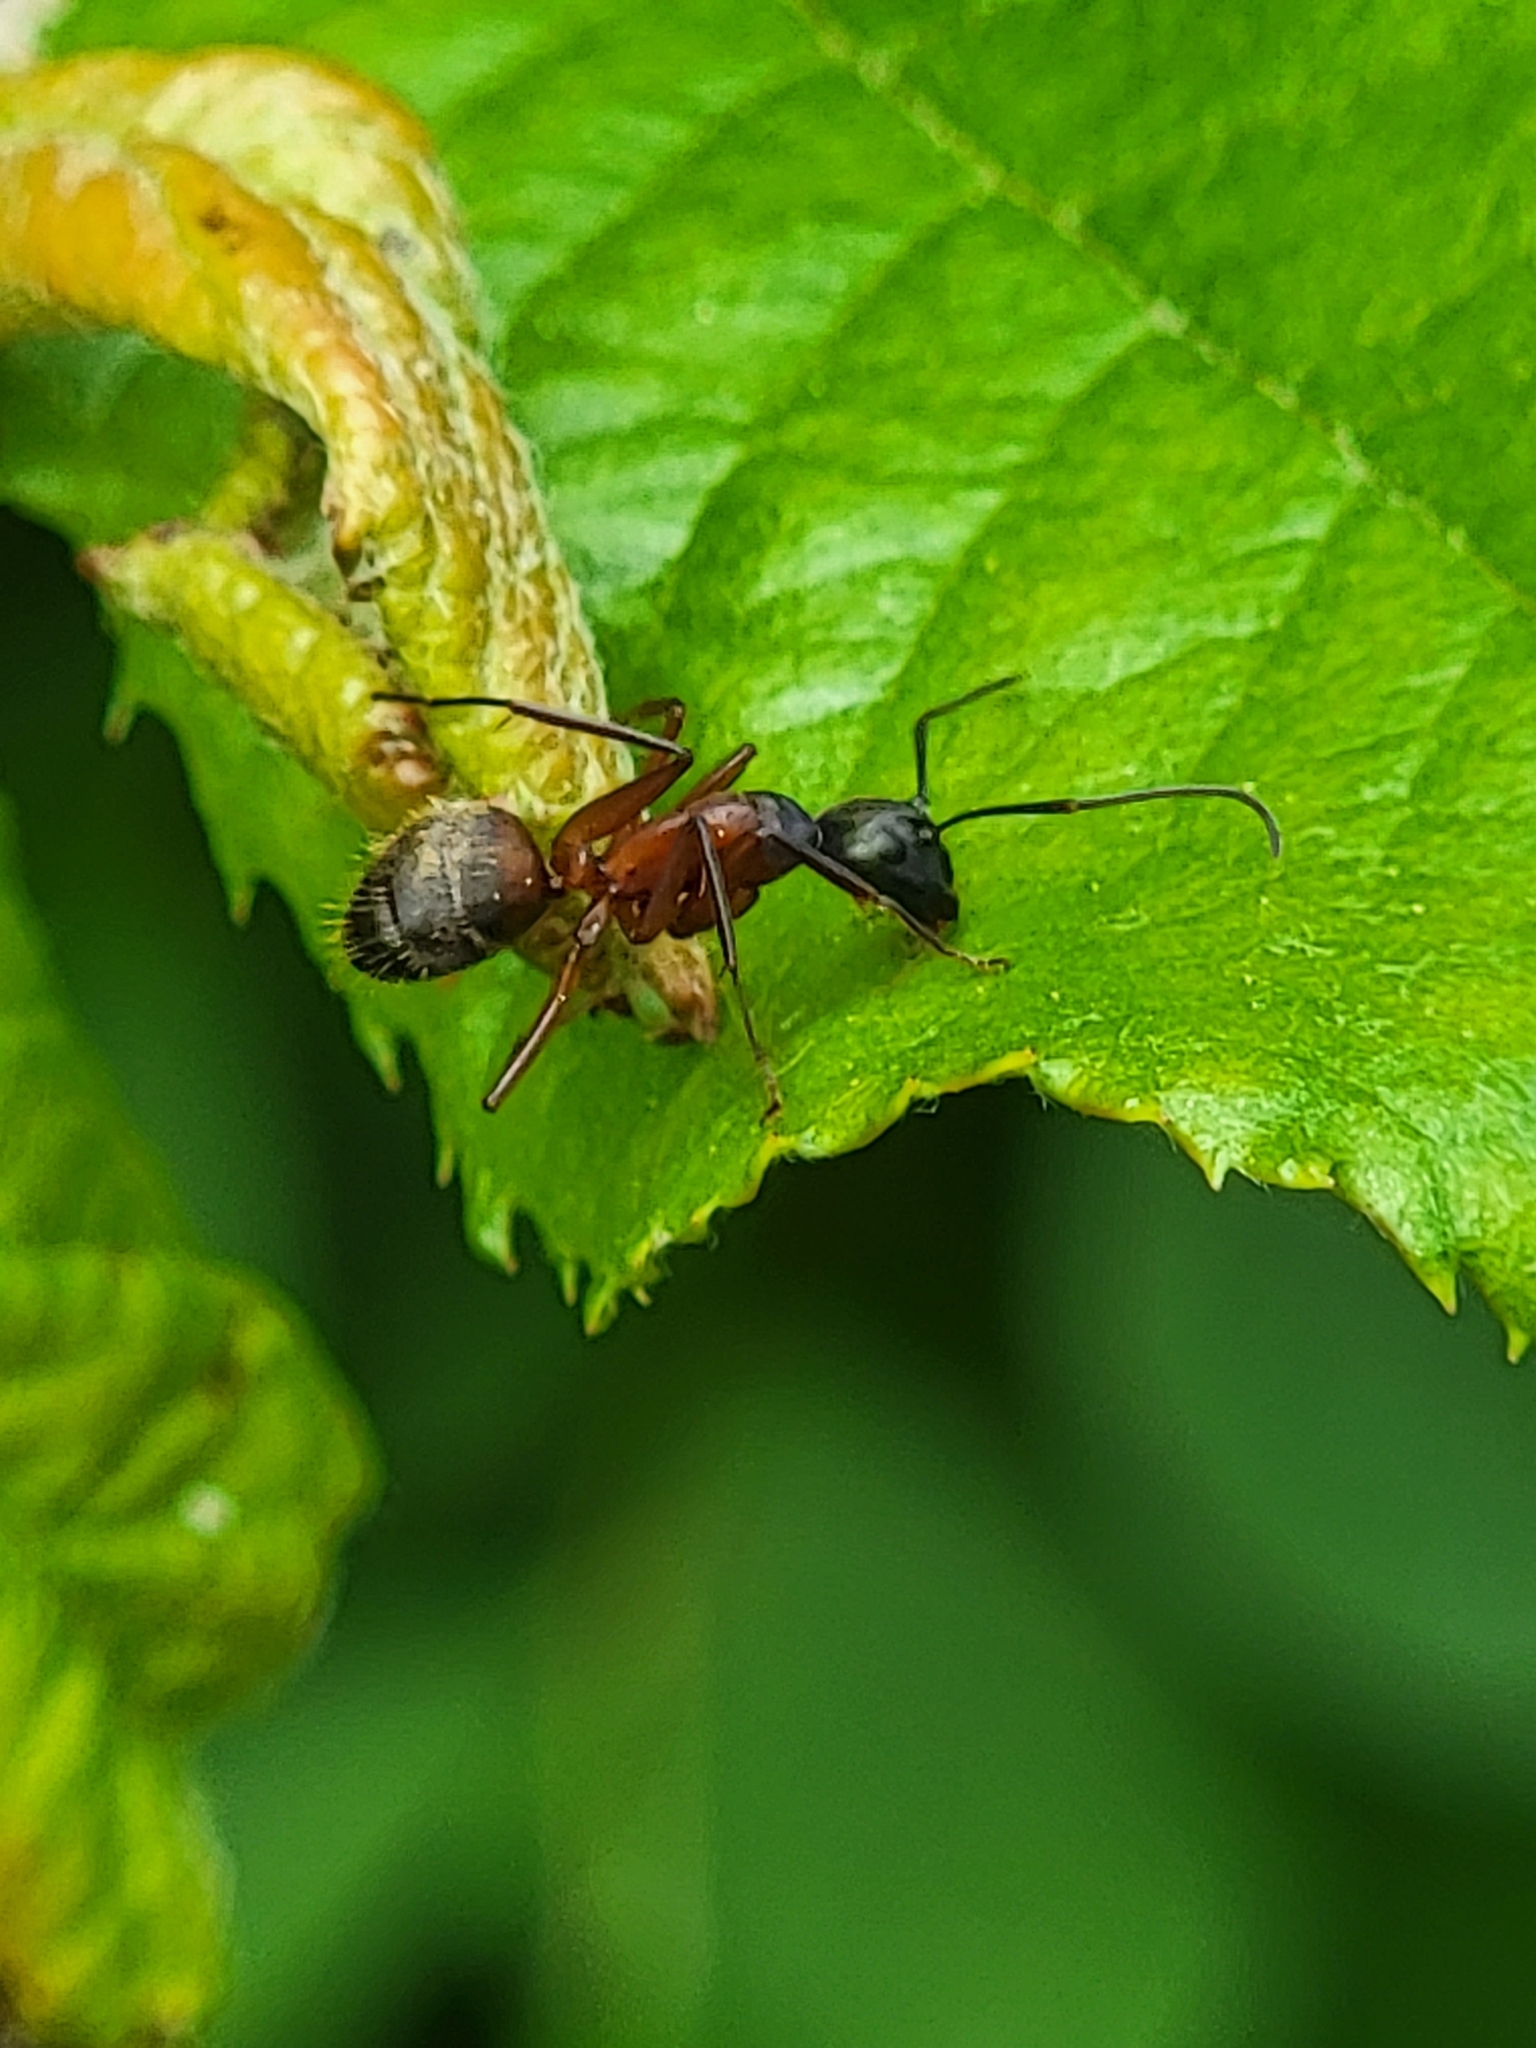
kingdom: Animalia
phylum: Arthropoda
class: Insecta
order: Hymenoptera
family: Formicidae
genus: Camponotus
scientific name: Camponotus chromaiodes
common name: Red carpenter ant
